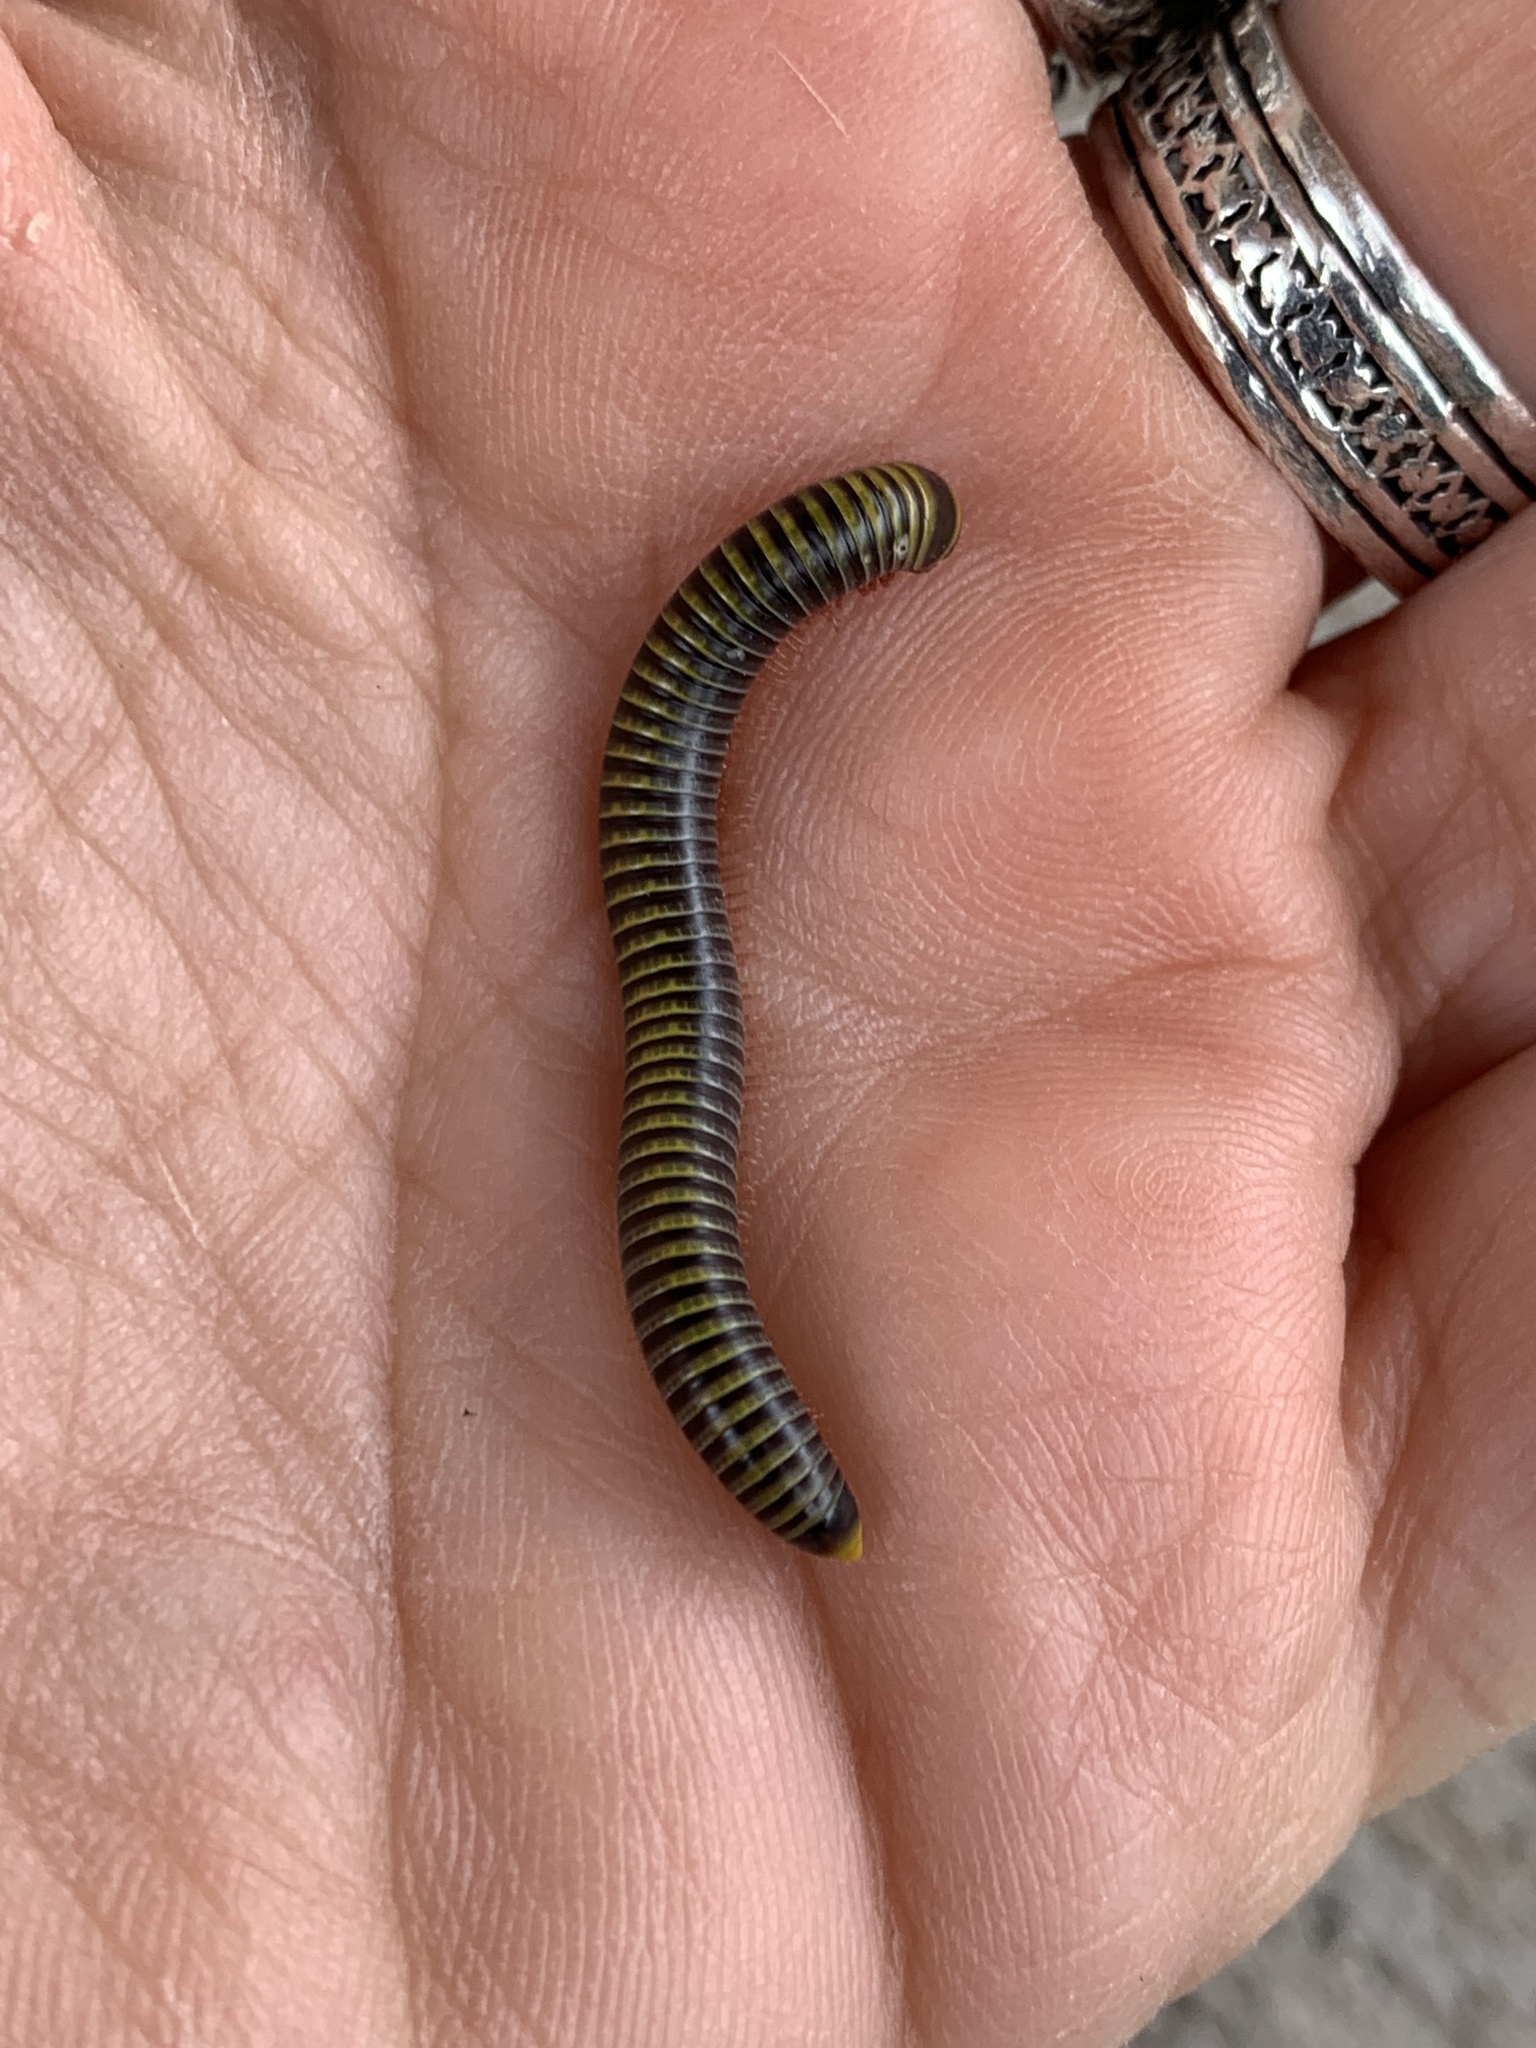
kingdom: Animalia
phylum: Arthropoda
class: Diplopoda
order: Spirobolida
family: Rhinocricidae
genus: Anadenobolus
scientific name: Anadenobolus monilicornis
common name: Caribbean millipede
